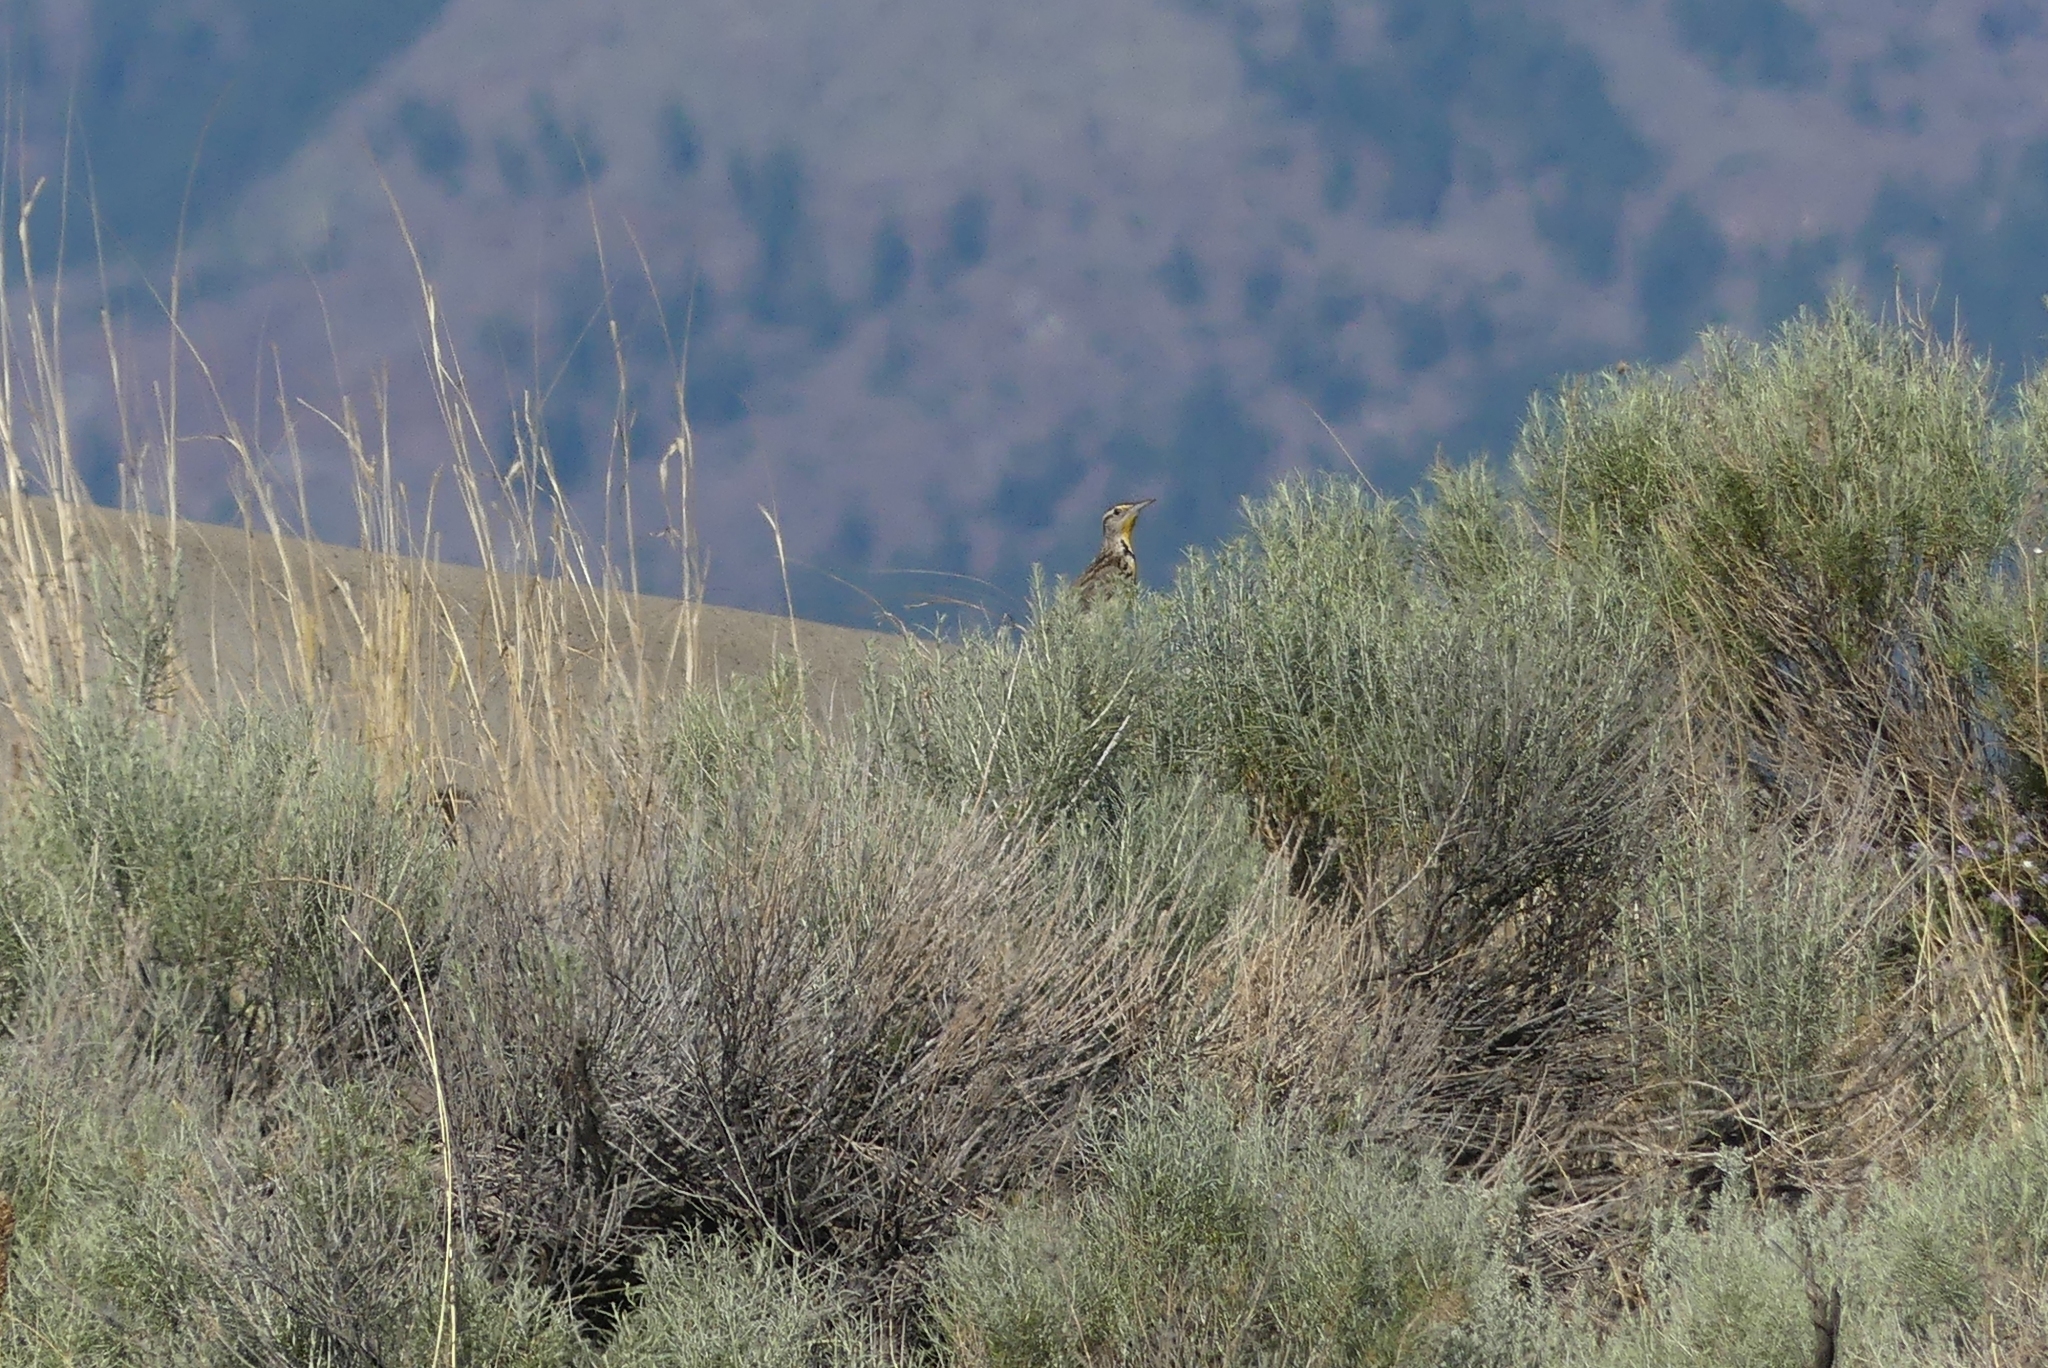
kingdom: Animalia
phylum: Chordata
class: Aves
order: Passeriformes
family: Icteridae
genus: Sturnella
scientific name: Sturnella neglecta
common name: Western meadowlark
